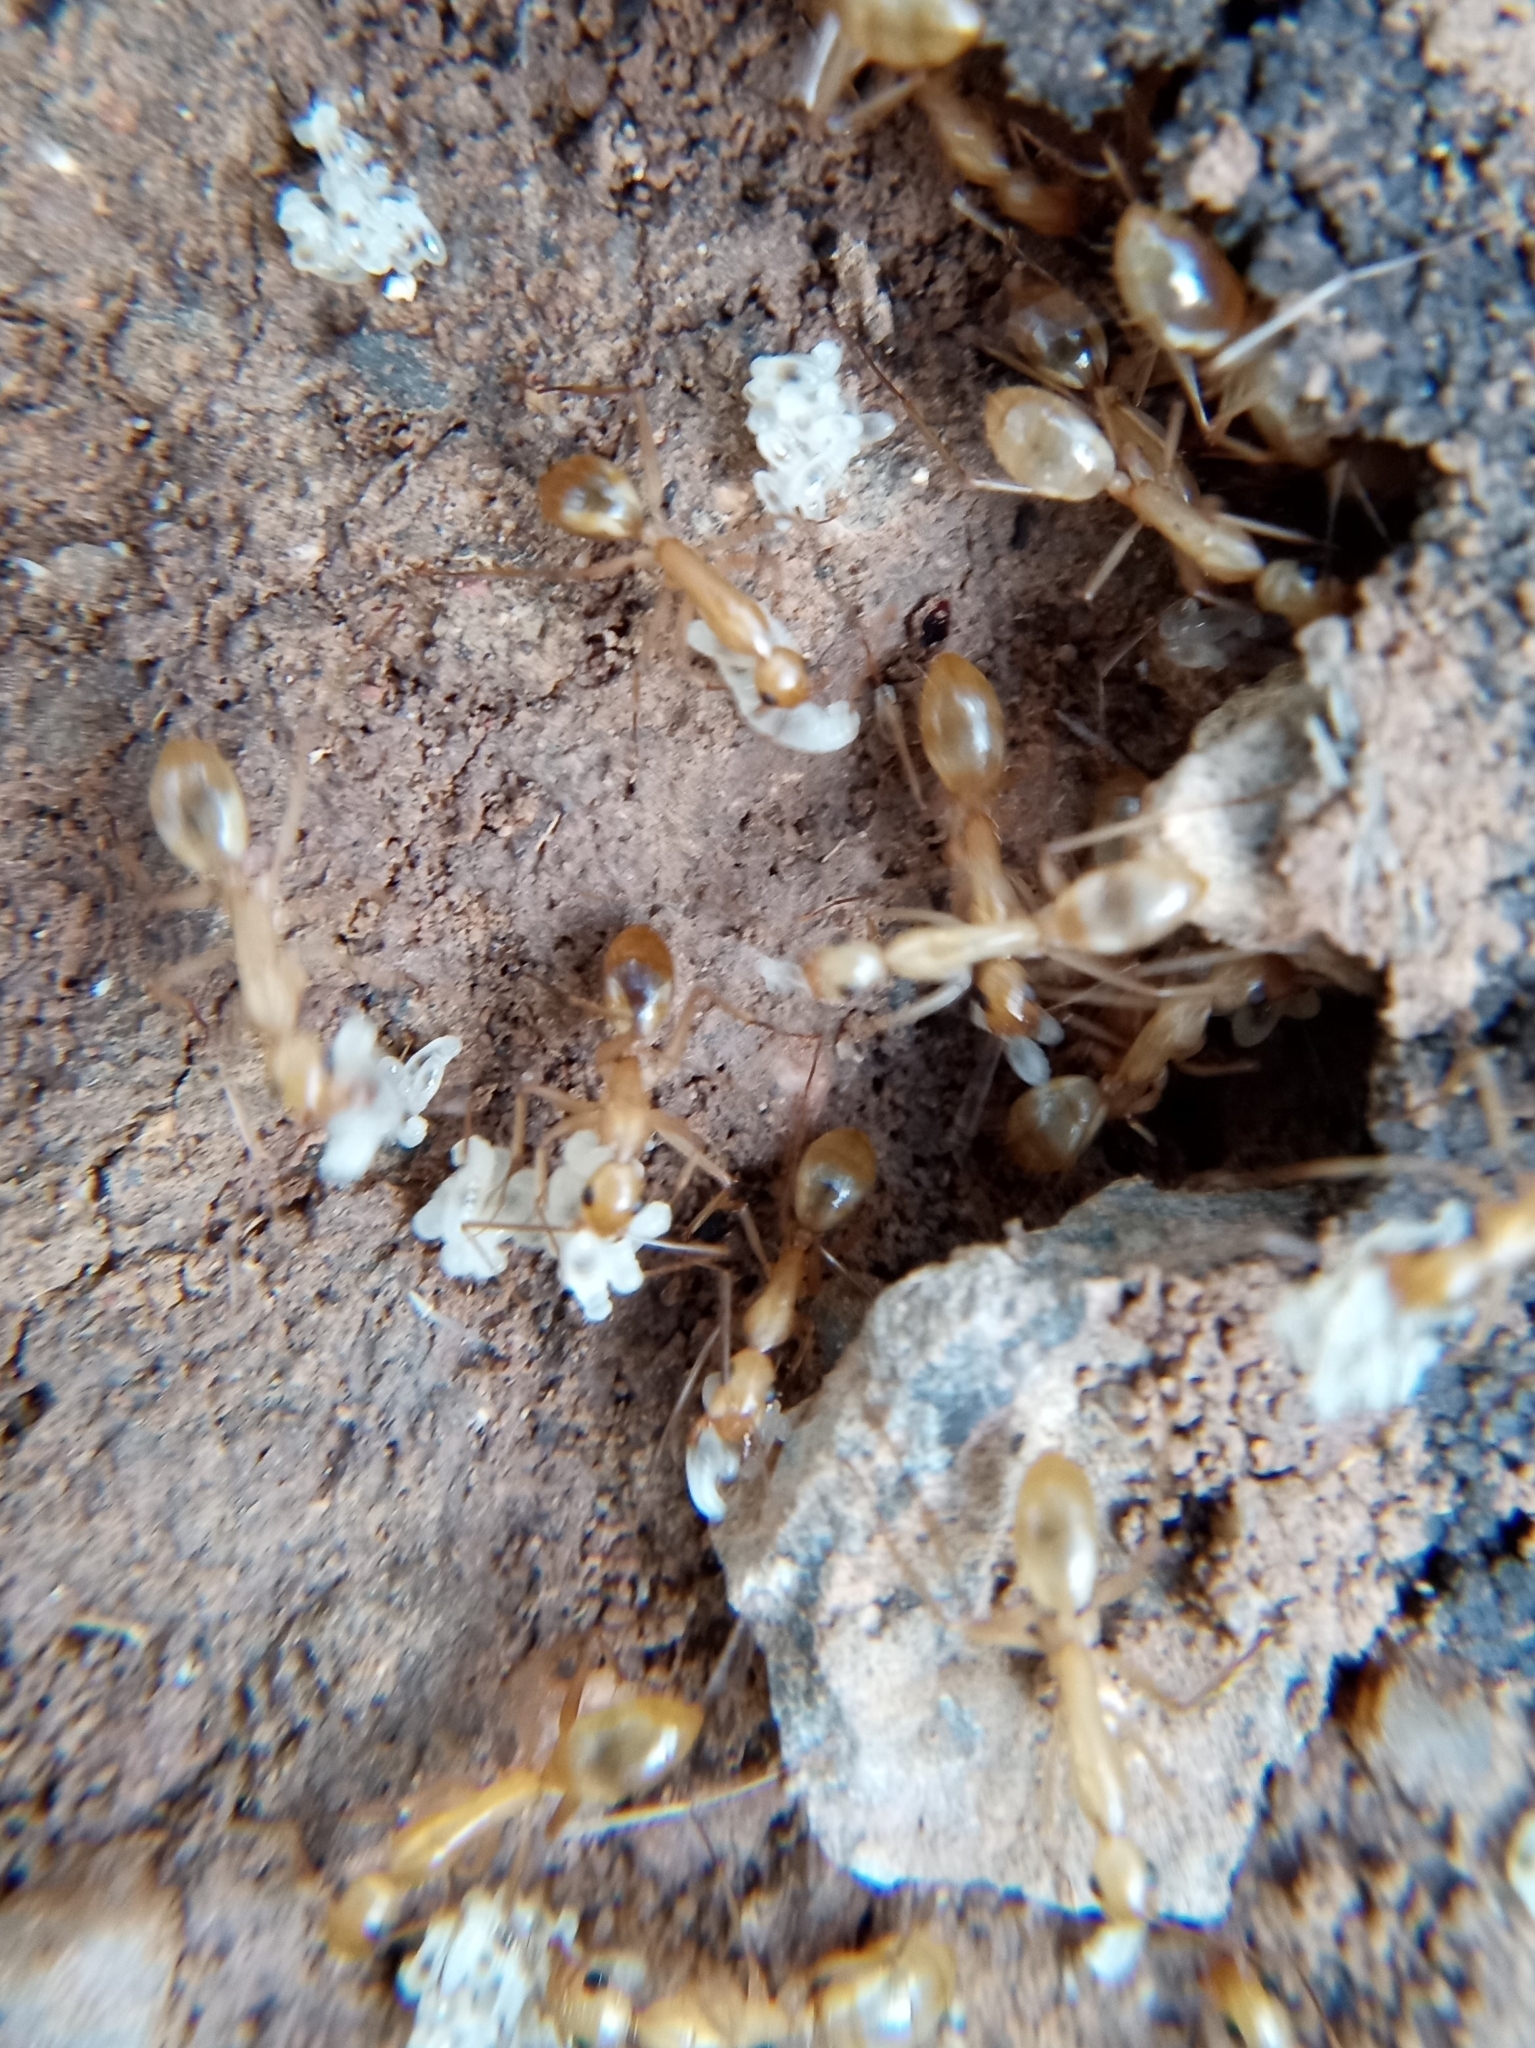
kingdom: Animalia
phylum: Arthropoda
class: Insecta
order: Hymenoptera
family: Formicidae
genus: Camponotus
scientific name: Camponotus festinatus
